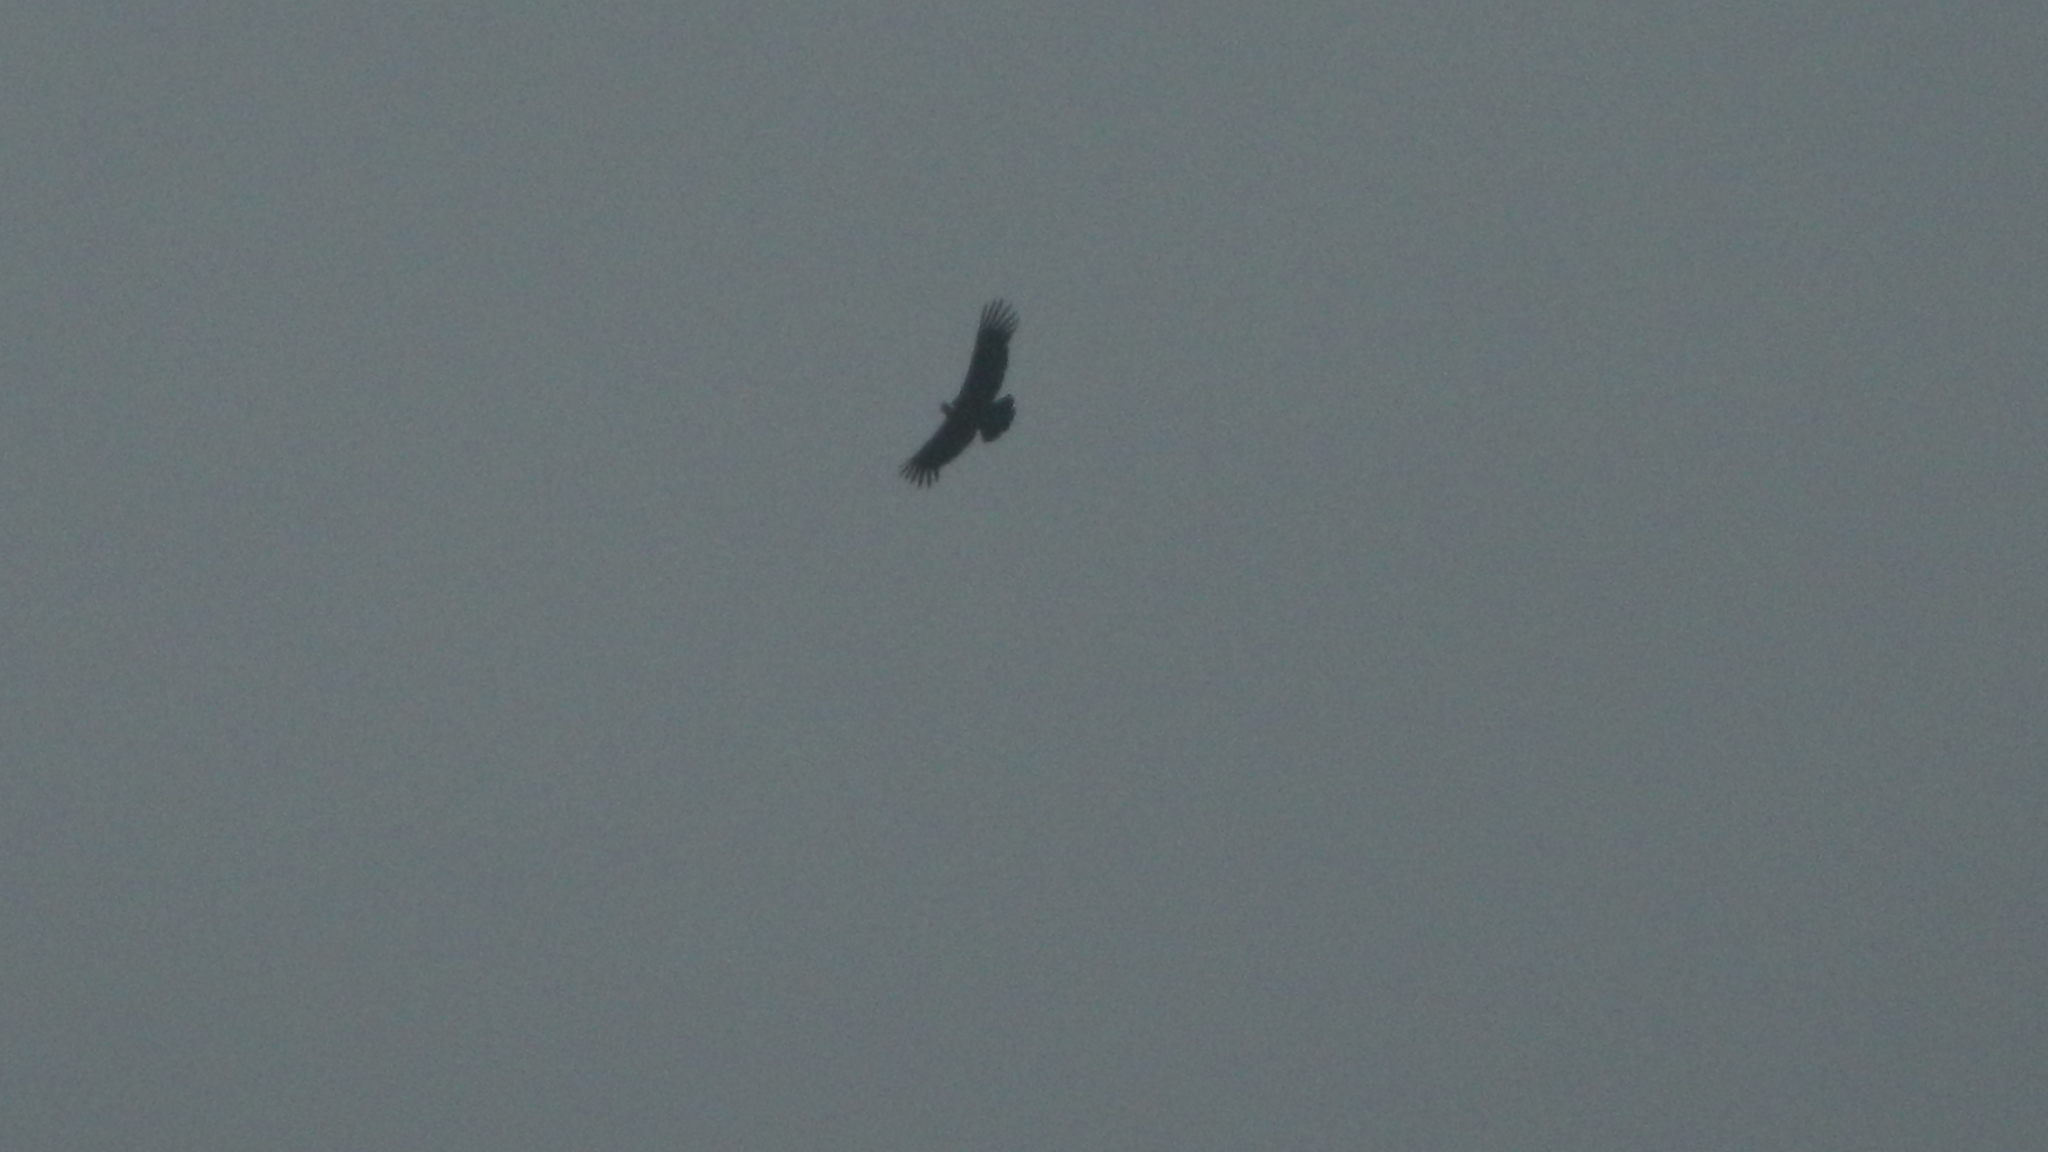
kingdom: Animalia
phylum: Chordata
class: Aves
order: Accipitriformes
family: Cathartidae
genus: Vultur
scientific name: Vultur gryphus
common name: Andean condor
